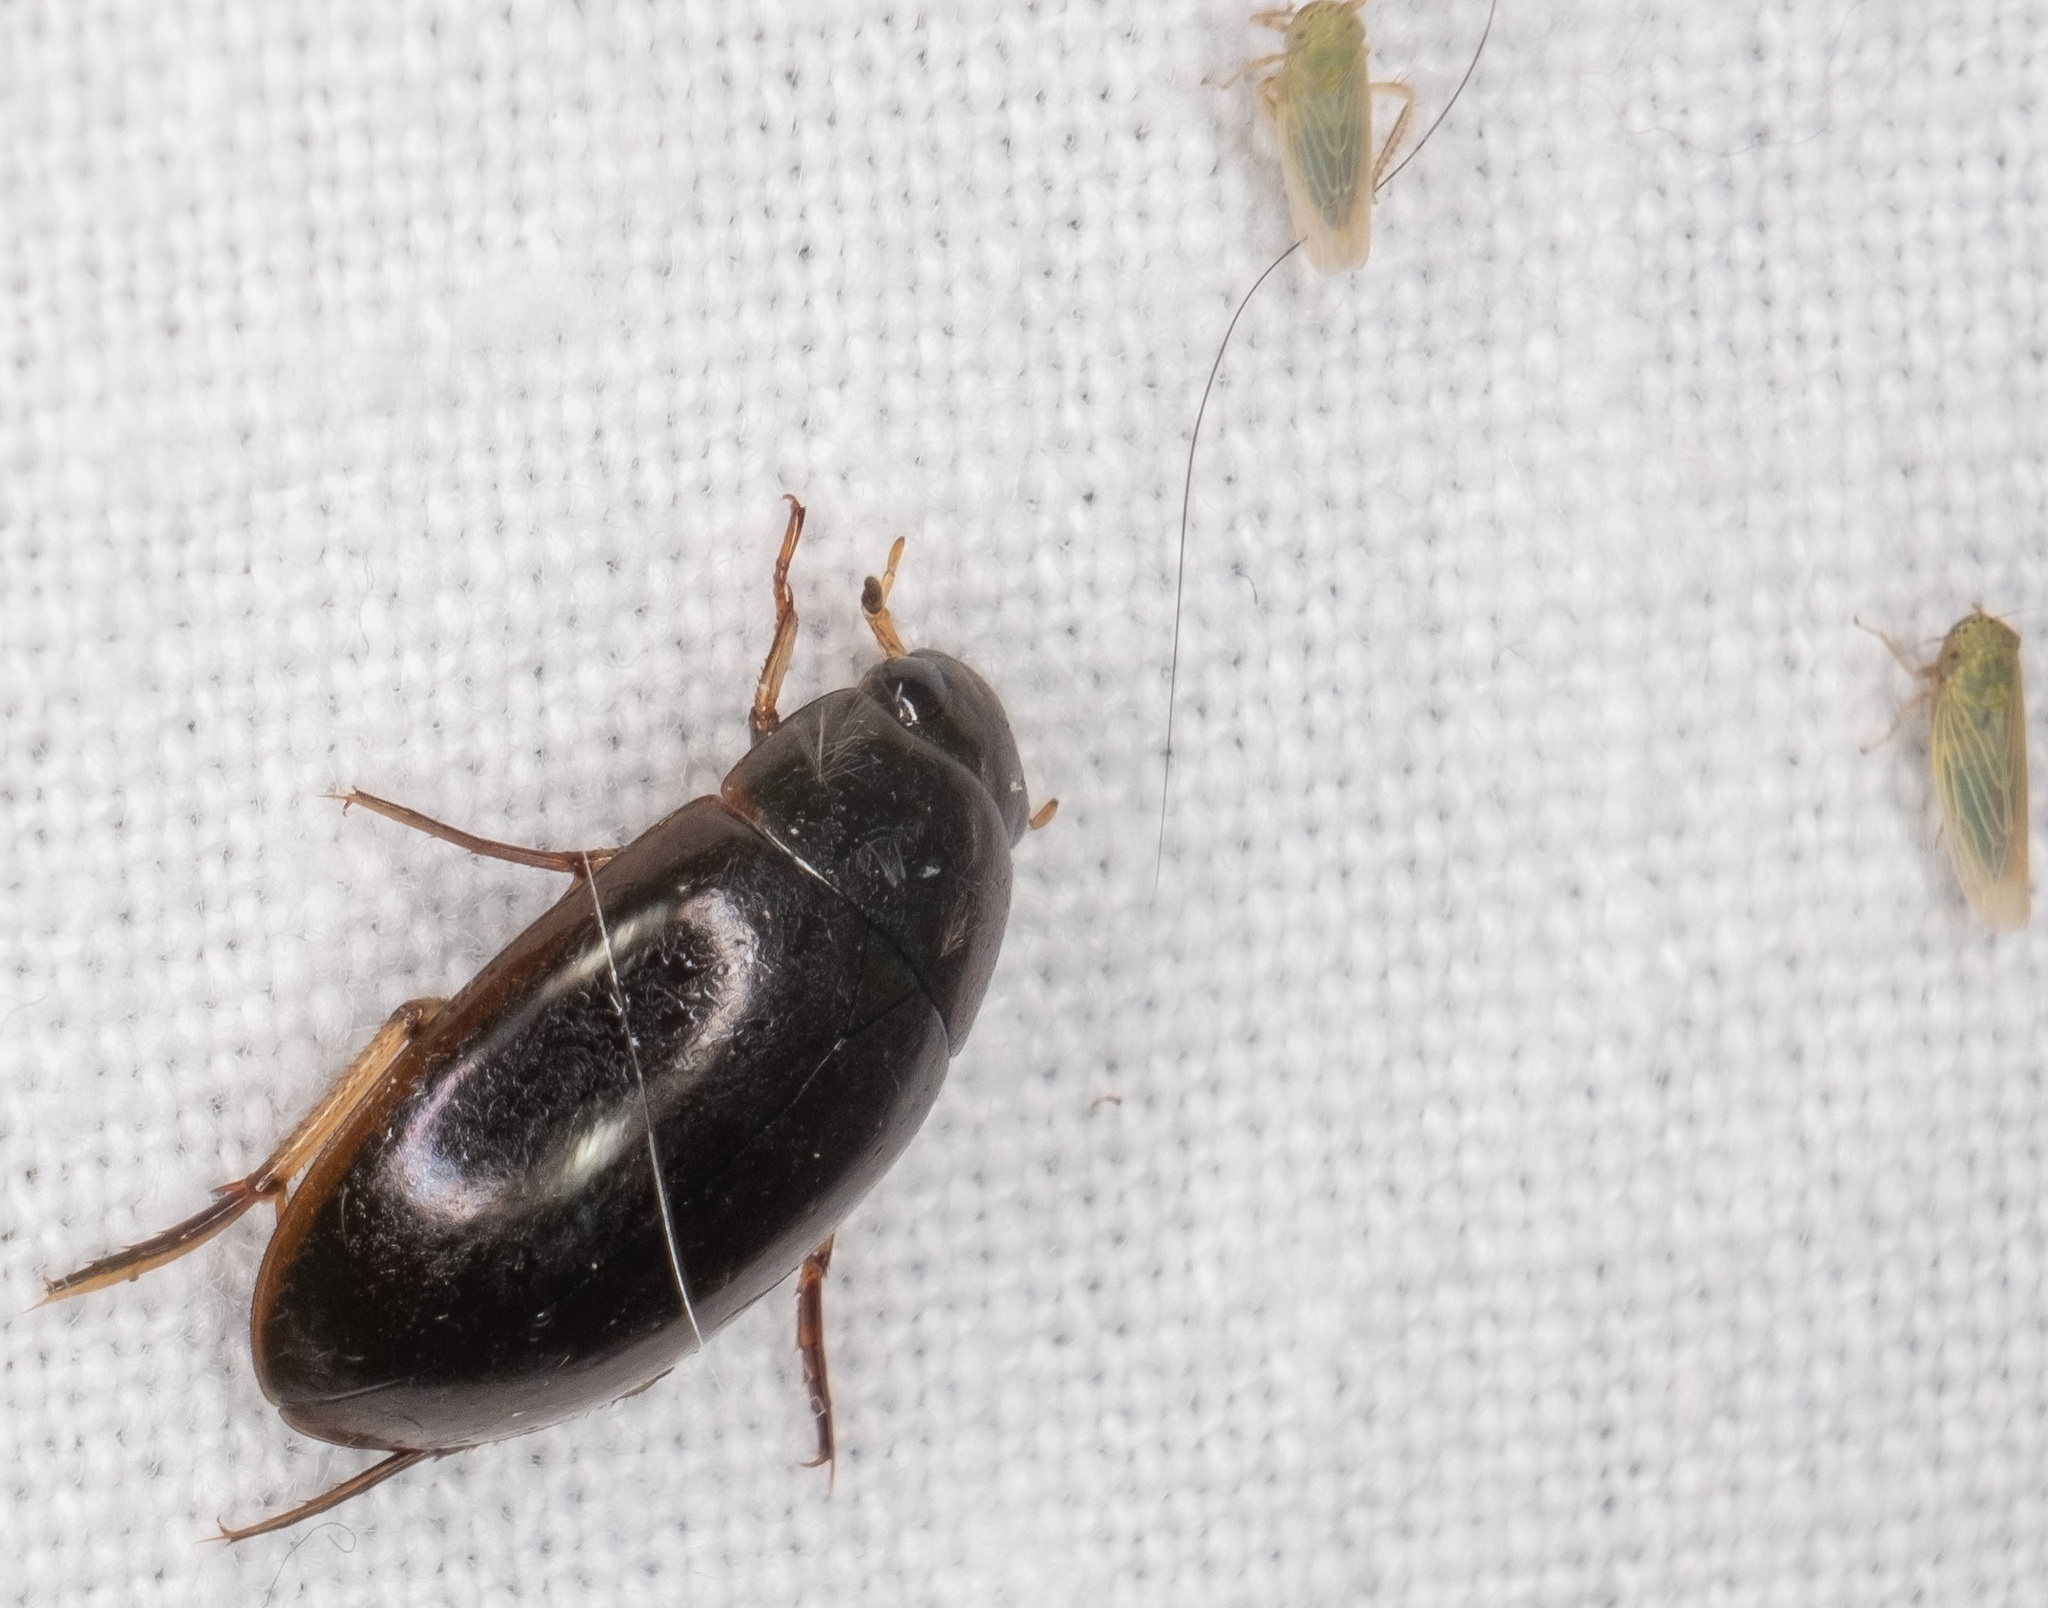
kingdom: Animalia
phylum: Arthropoda
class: Insecta
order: Coleoptera
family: Hydrophilidae
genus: Tropisternus
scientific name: Tropisternus quadristriatus
